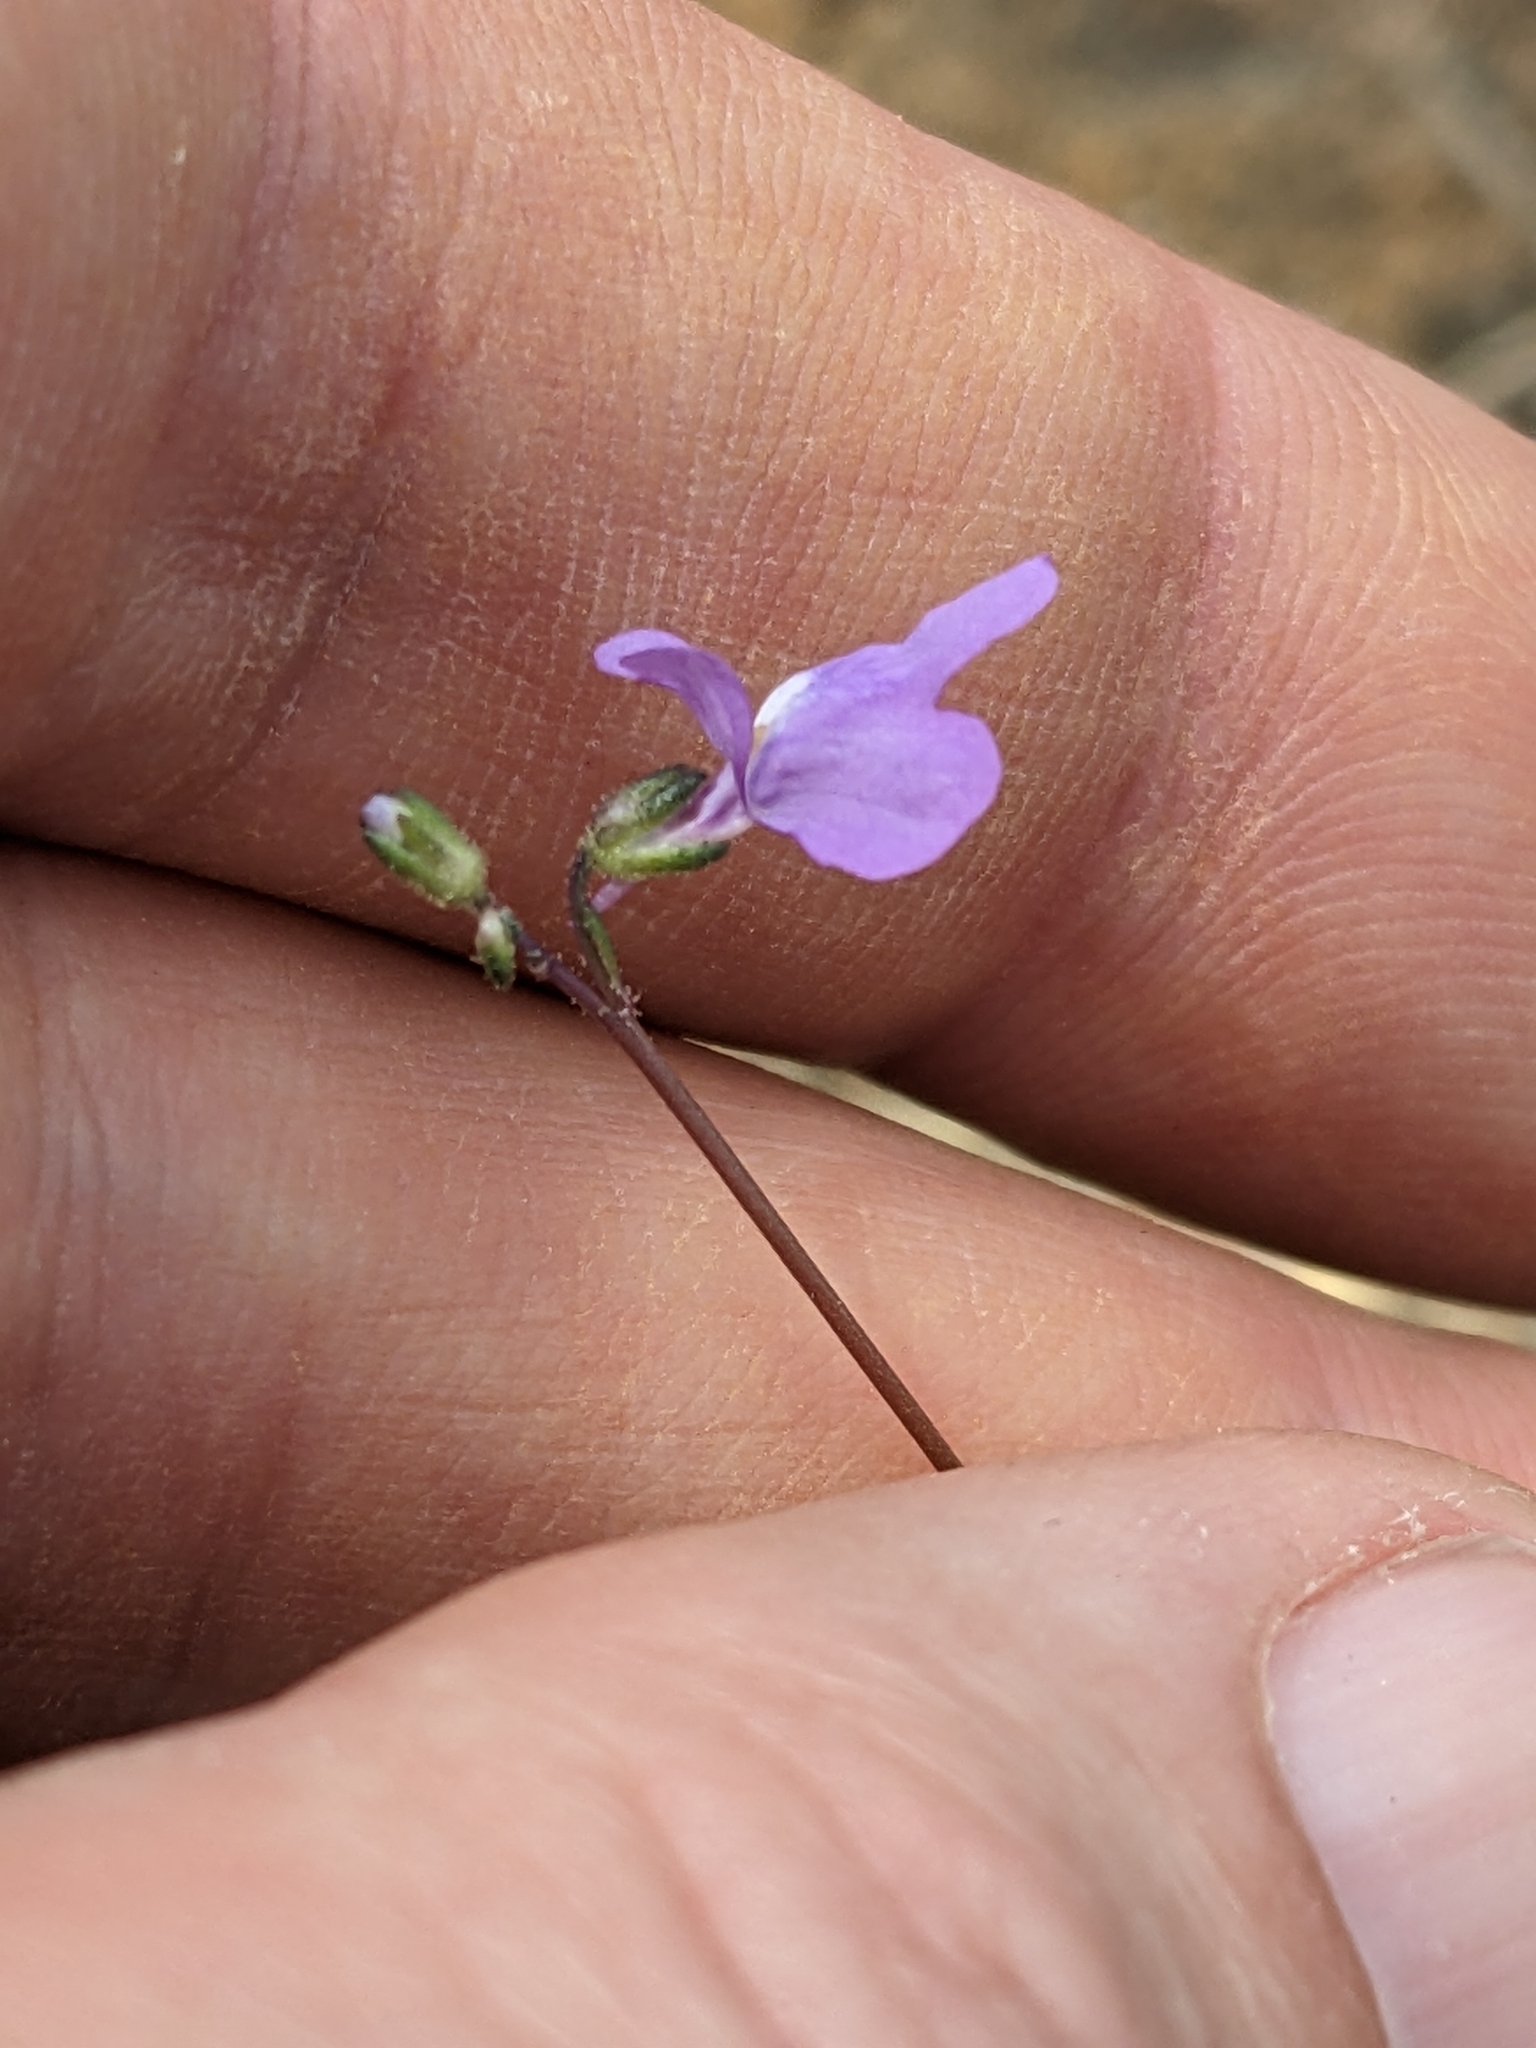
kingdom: Plantae
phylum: Tracheophyta
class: Magnoliopsida
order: Lamiales
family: Plantaginaceae
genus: Nuttallanthus
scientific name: Nuttallanthus canadensis
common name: Blue toadflax
